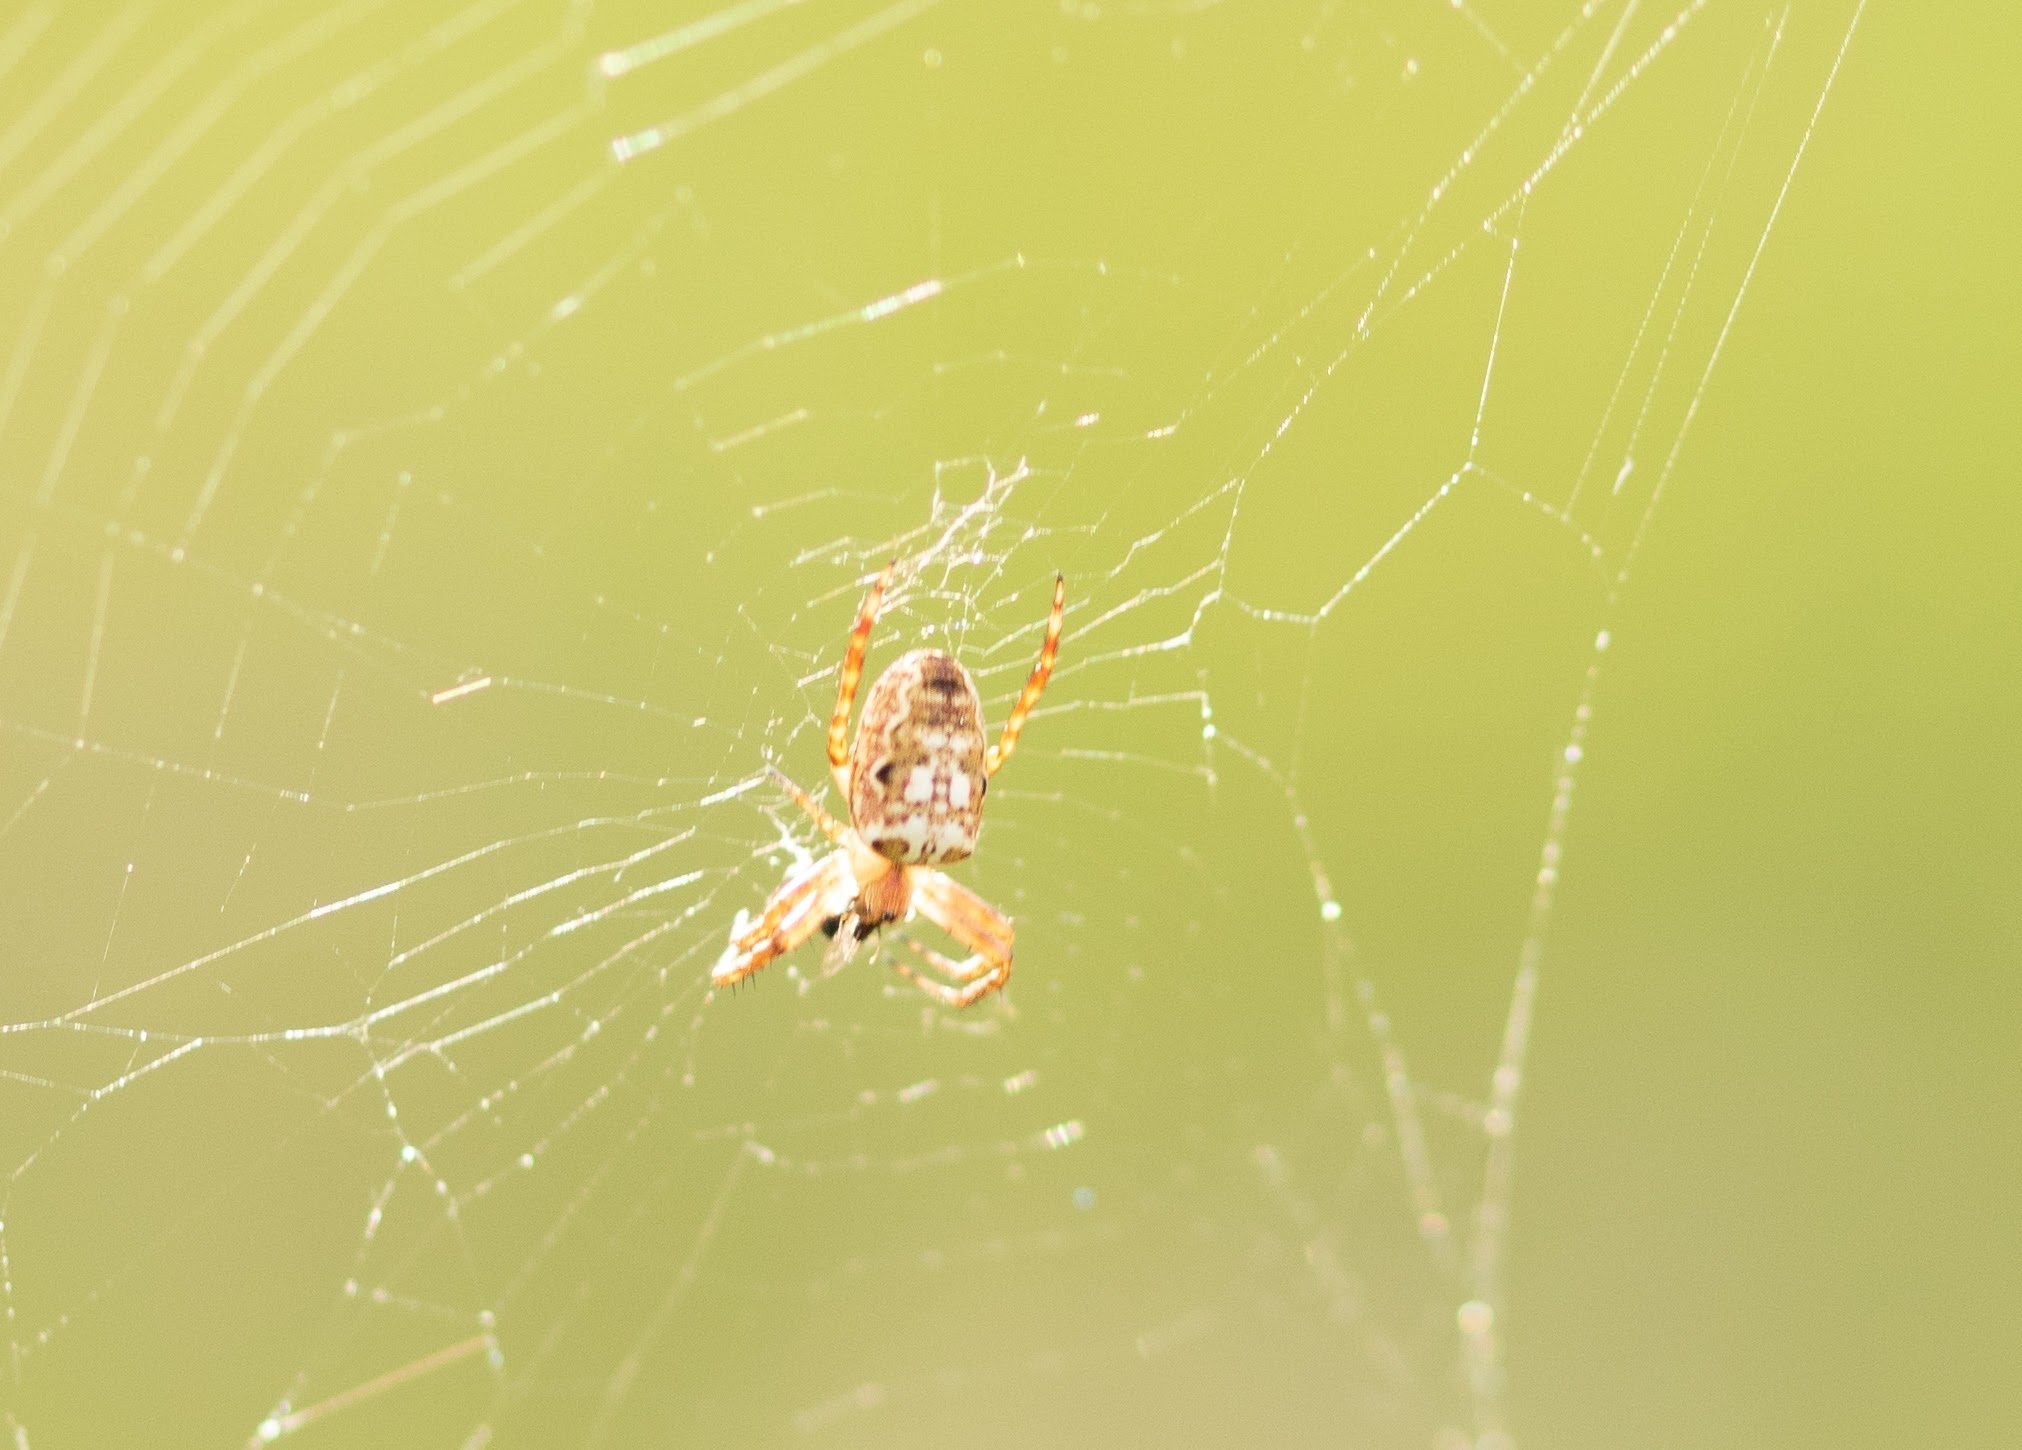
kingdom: Animalia
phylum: Arthropoda
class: Arachnida
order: Araneae
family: Araneidae
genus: Plebs
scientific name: Plebs eburnus
